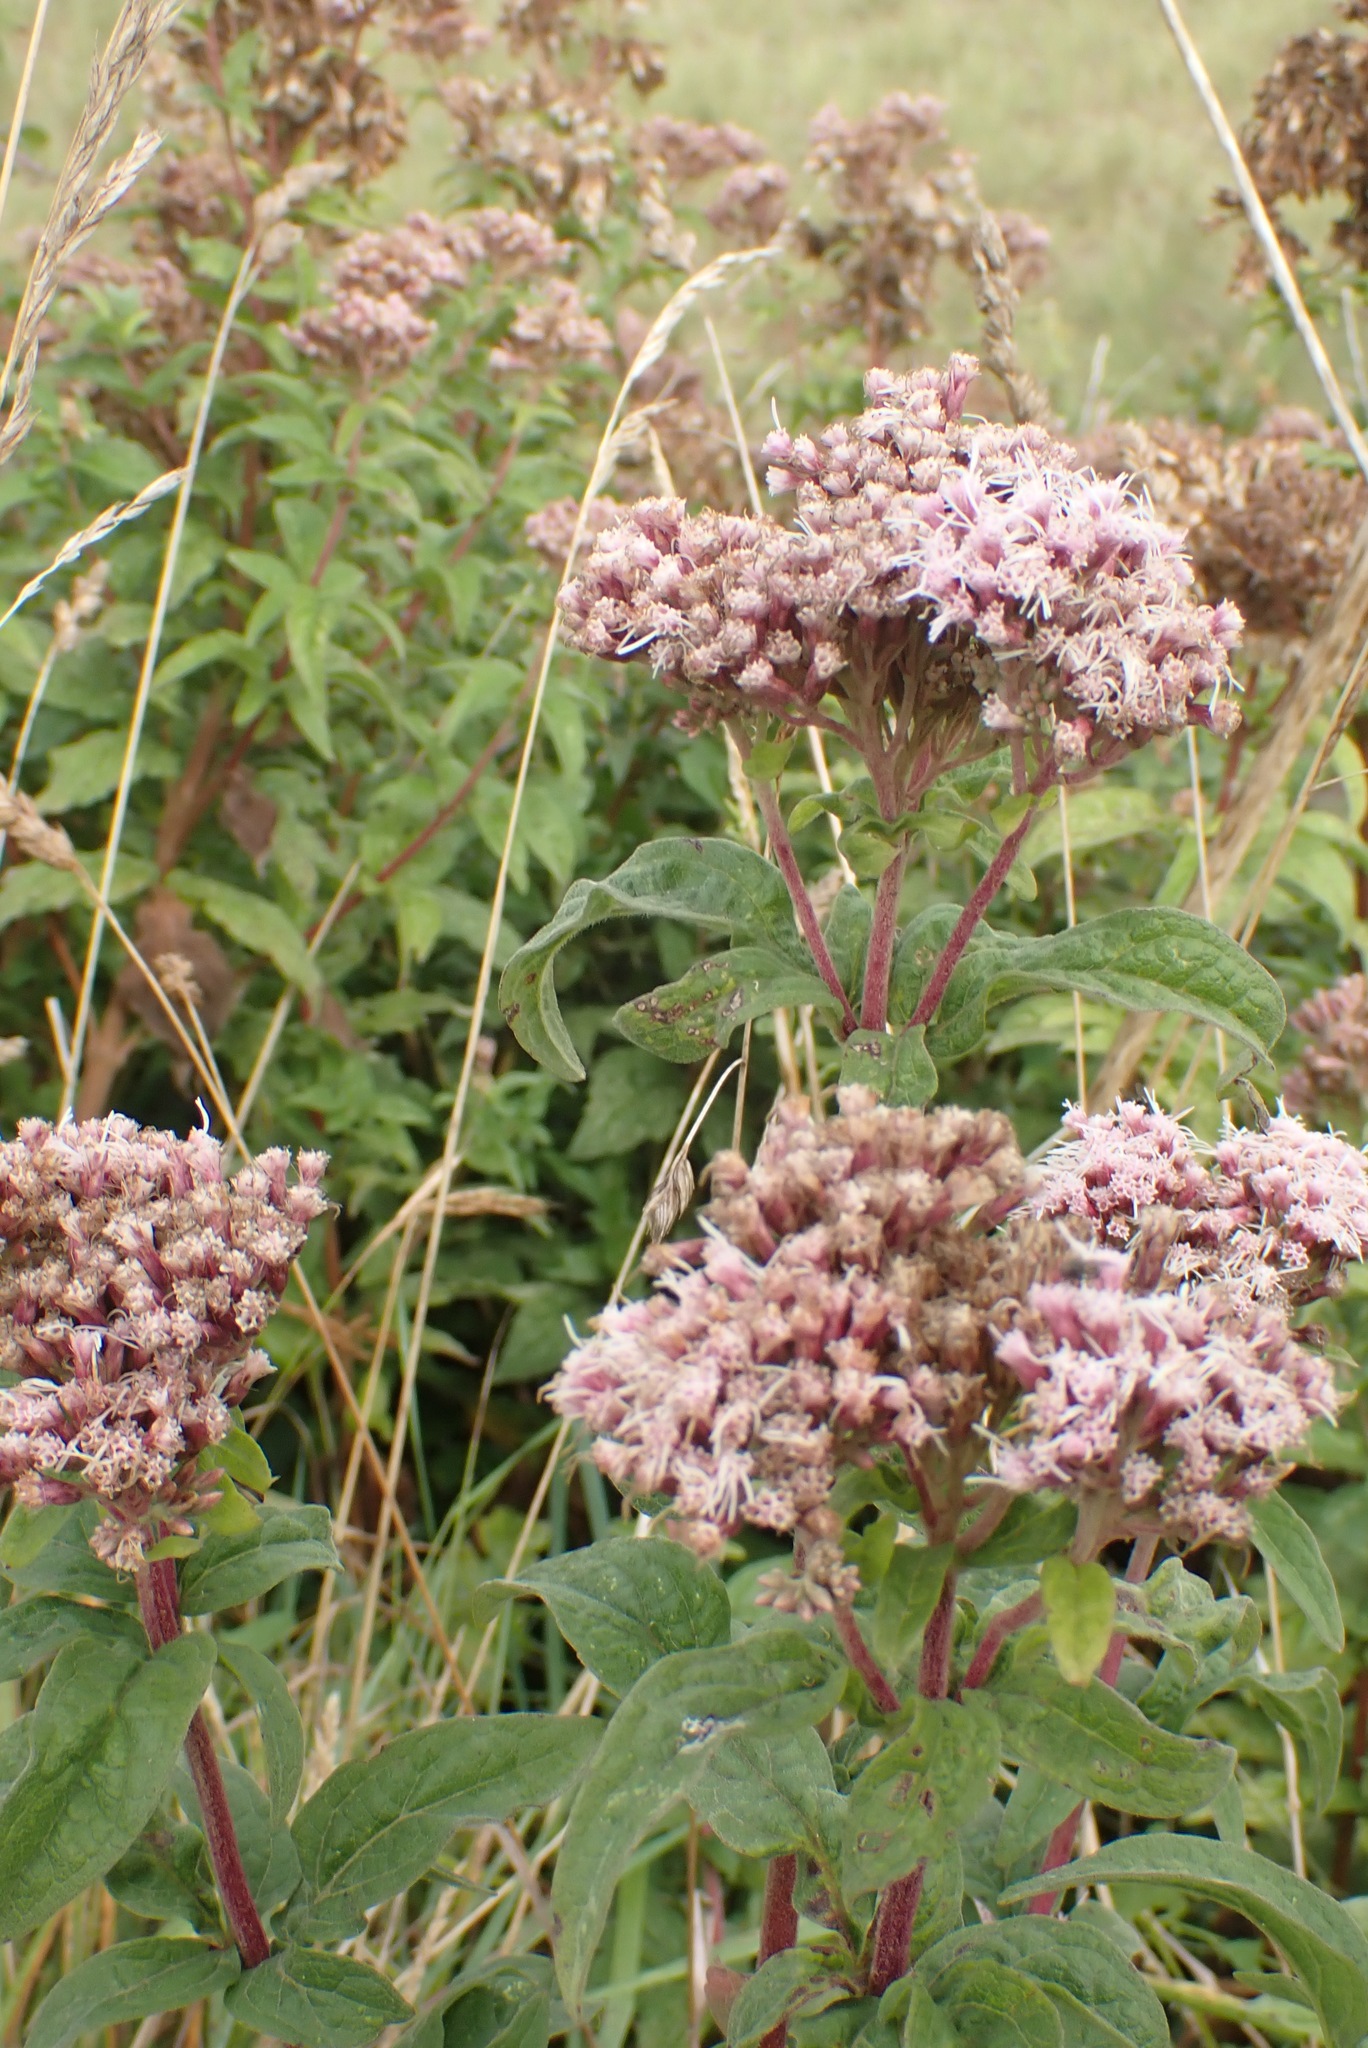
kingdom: Plantae
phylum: Tracheophyta
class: Magnoliopsida
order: Asterales
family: Asteraceae
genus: Eupatorium
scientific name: Eupatorium cannabinum
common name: Hemp-agrimony
